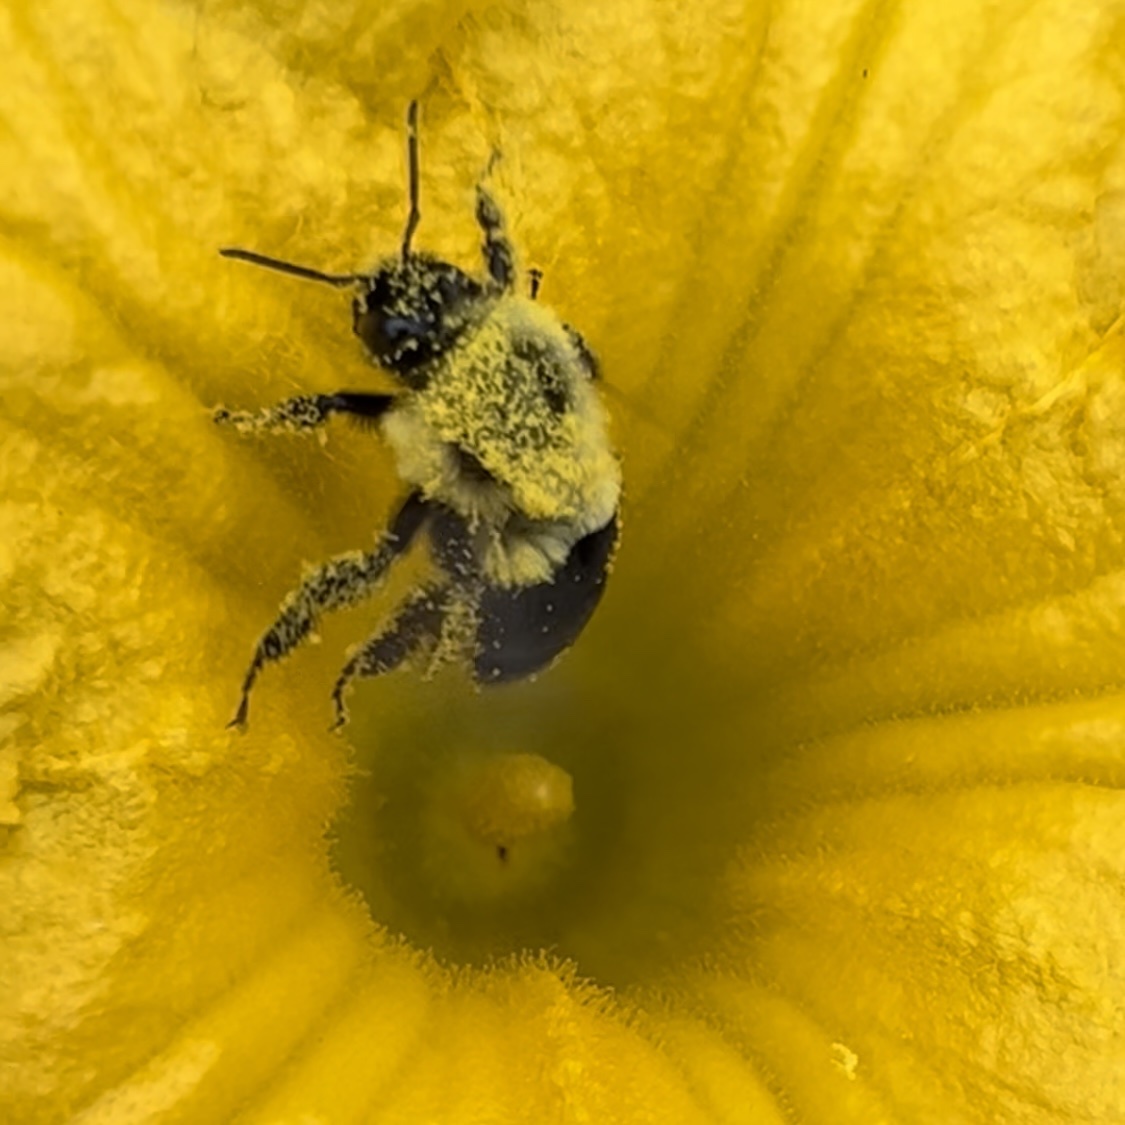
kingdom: Animalia
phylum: Arthropoda
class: Insecta
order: Hymenoptera
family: Apidae
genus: Bombus
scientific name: Bombus impatiens
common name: Common eastern bumble bee
